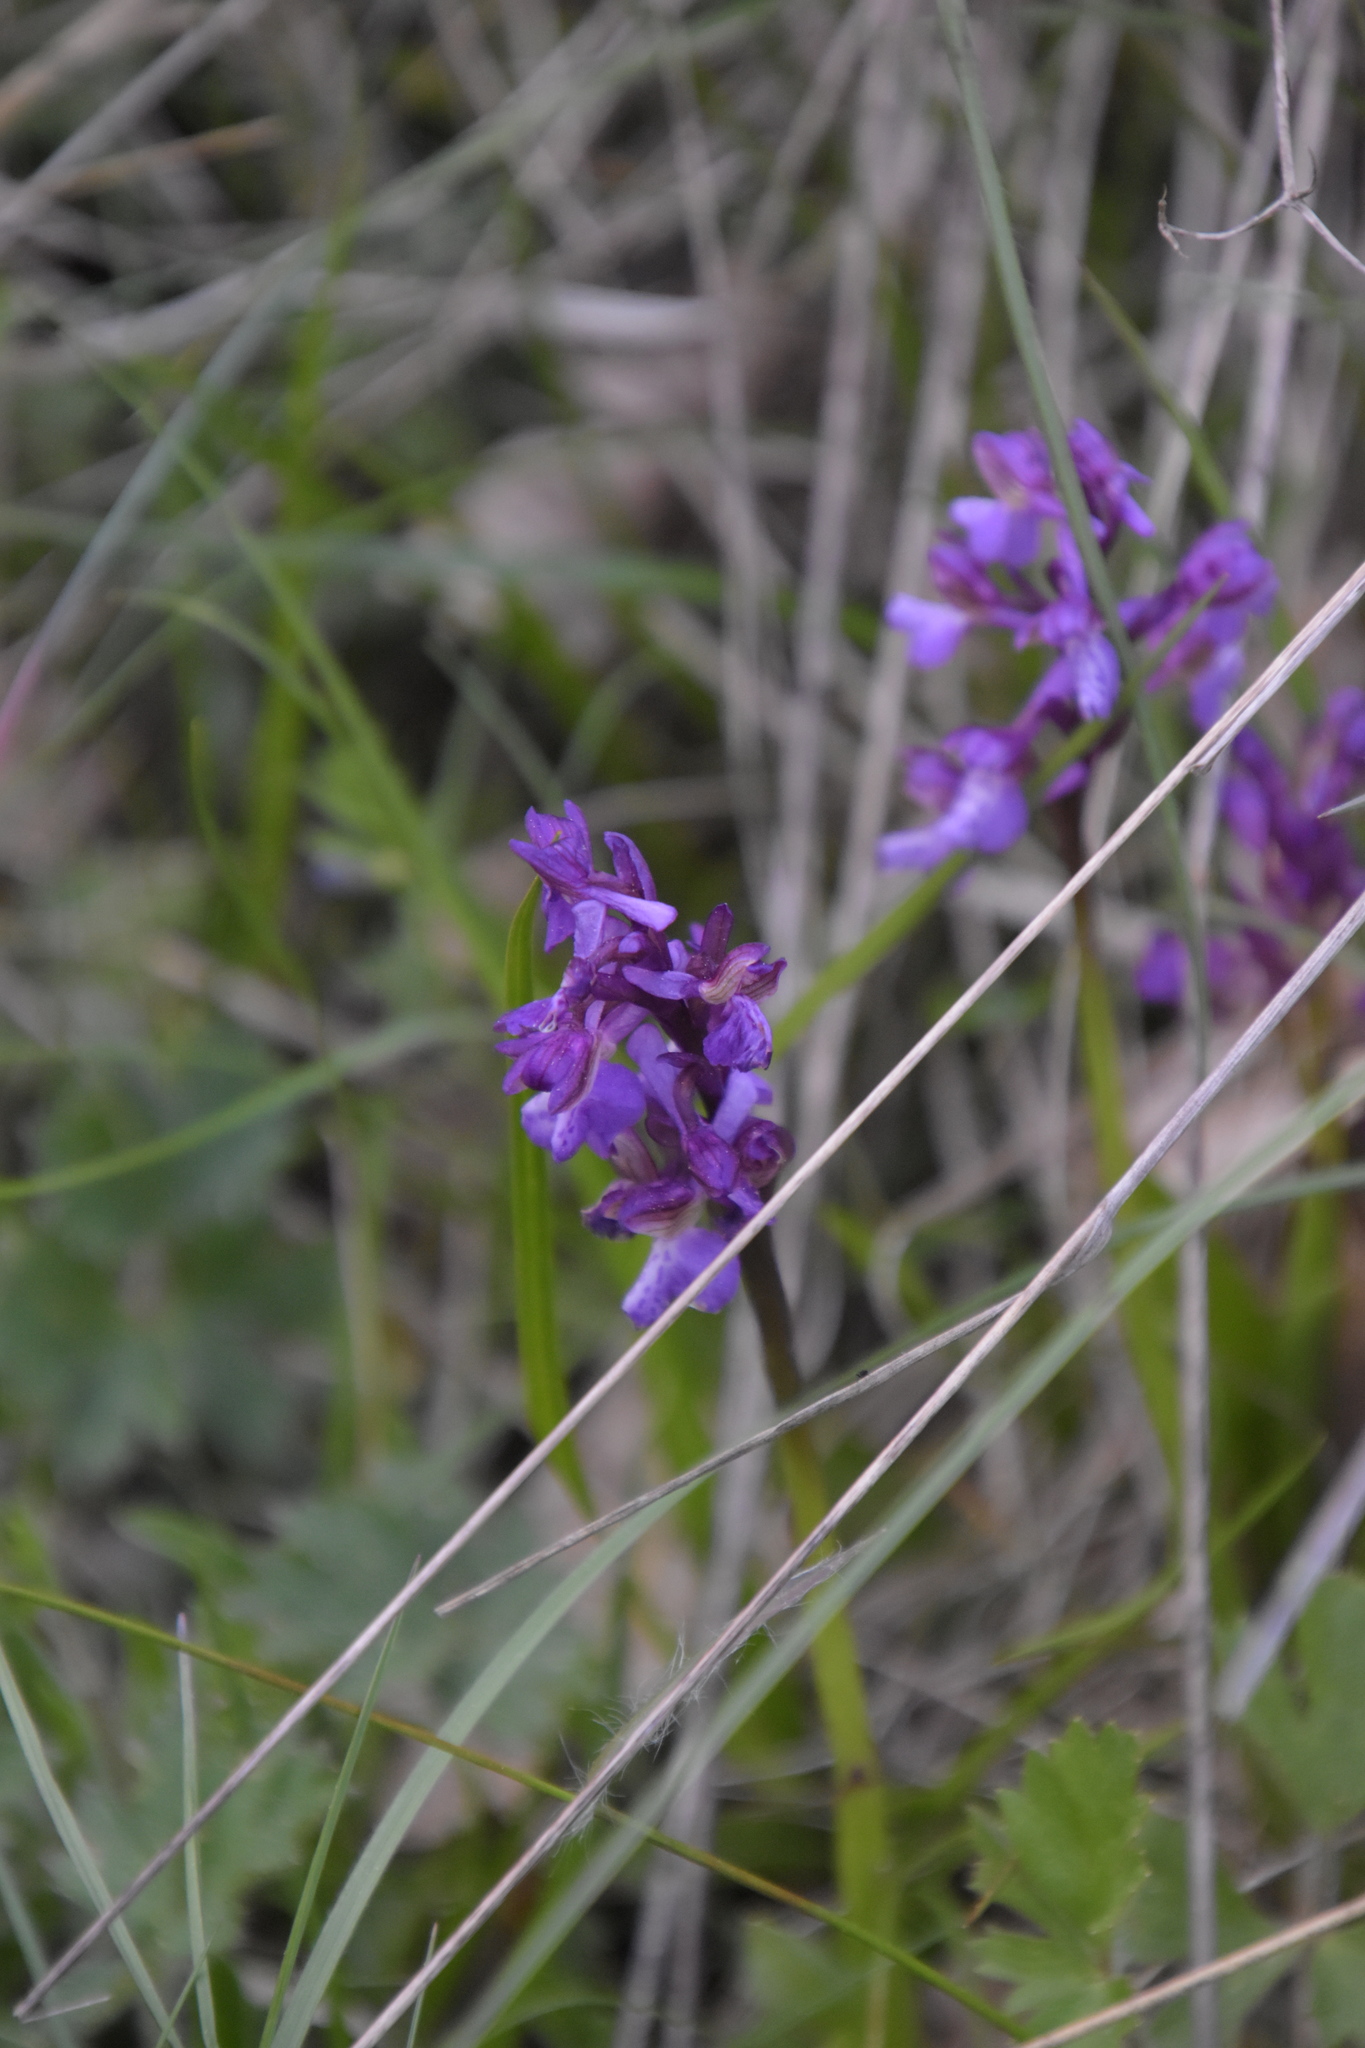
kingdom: Plantae
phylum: Tracheophyta
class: Liliopsida
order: Asparagales
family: Orchidaceae
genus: Anacamptis
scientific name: Anacamptis morio
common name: Green-winged orchid
